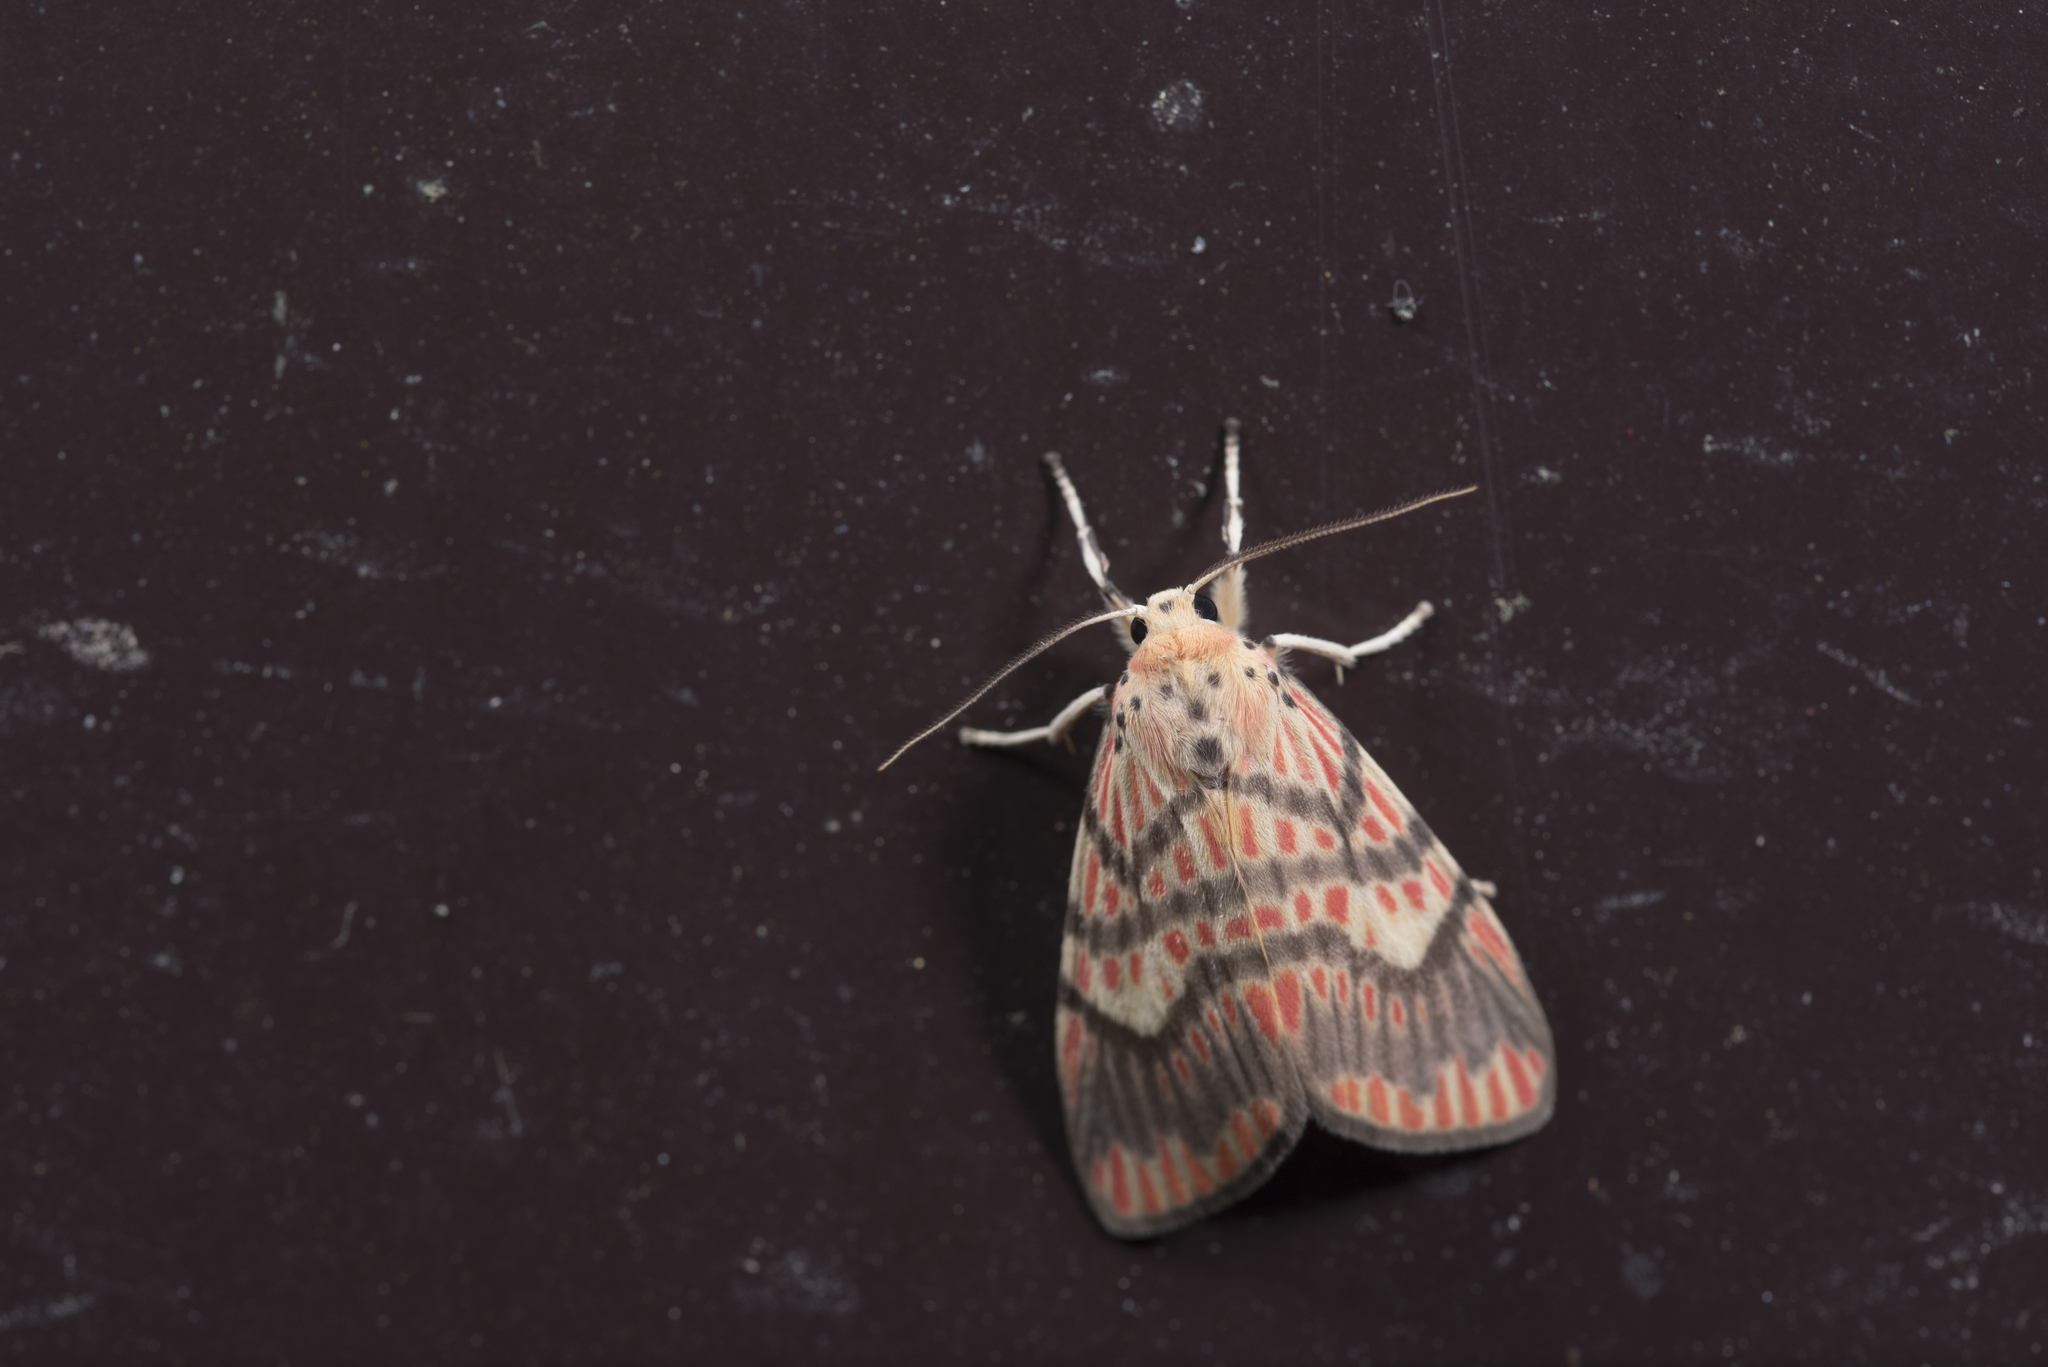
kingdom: Animalia
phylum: Arthropoda
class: Insecta
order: Lepidoptera
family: Erebidae
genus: Barsine
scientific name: Barsine fuscozonata
